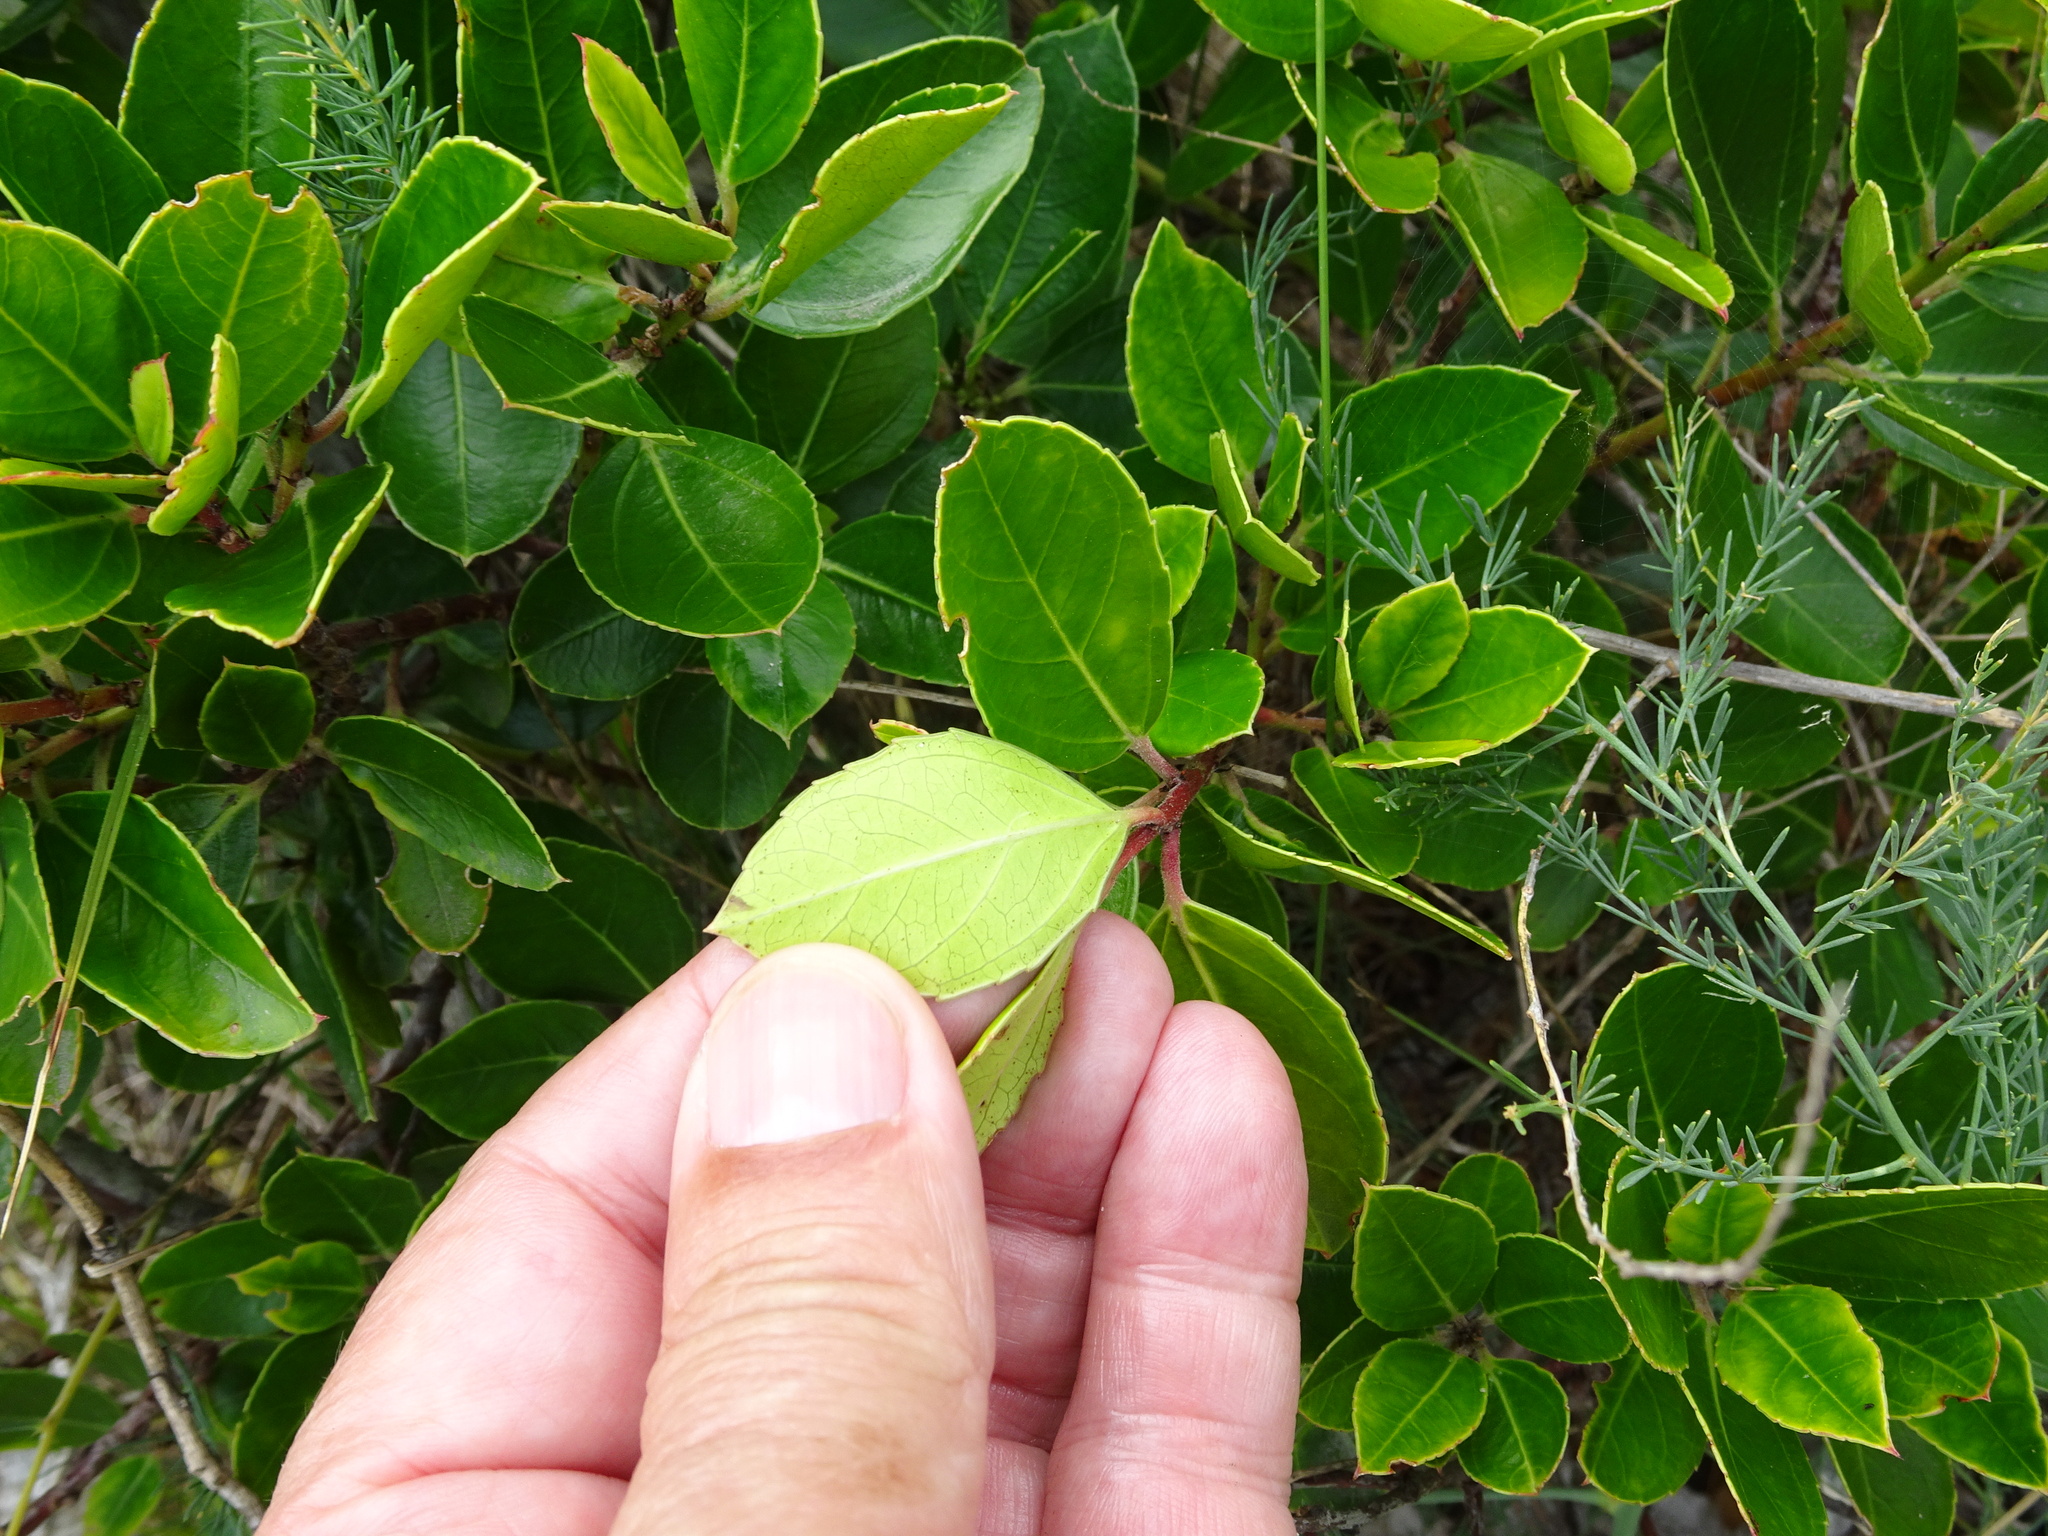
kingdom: Plantae
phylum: Tracheophyta
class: Magnoliopsida
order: Rosales
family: Rhamnaceae
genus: Rhamnus
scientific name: Rhamnus alaternus
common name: Mediterranean buckthorn
